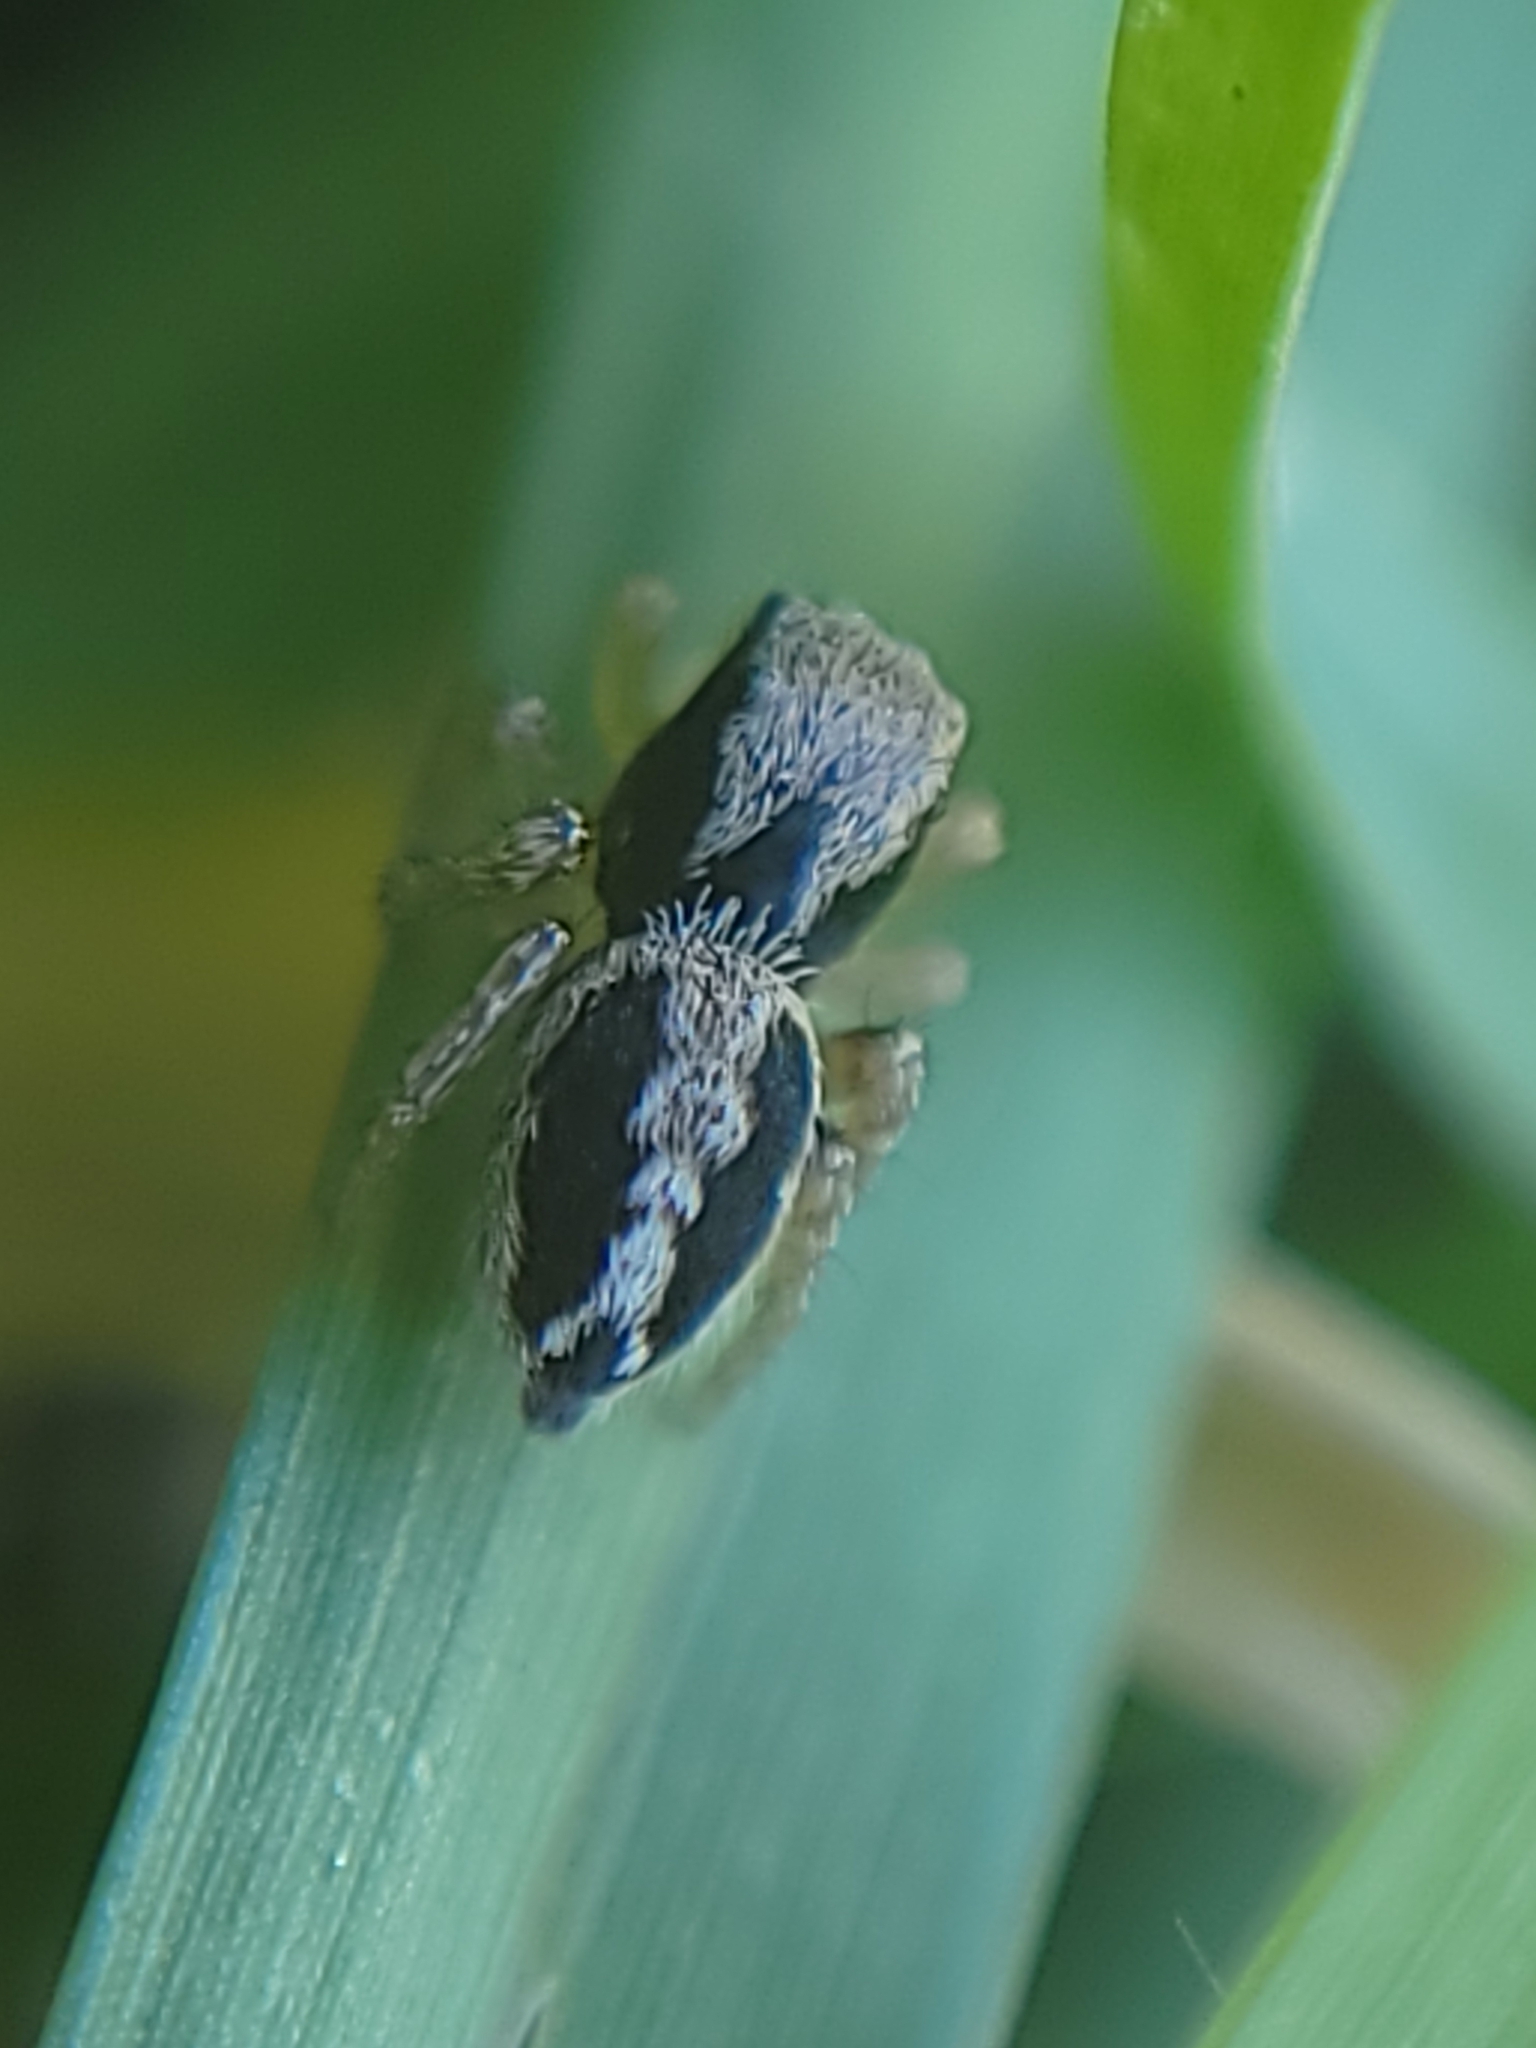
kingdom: Animalia
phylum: Arthropoda
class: Arachnida
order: Araneae
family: Salticidae
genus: Habronattus
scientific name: Habronattus pyrrithrix
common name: Jumping spider
